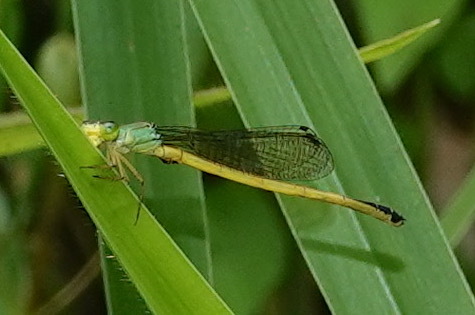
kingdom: Animalia
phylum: Arthropoda
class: Insecta
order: Odonata
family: Coenagrionidae
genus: Ceriagrion
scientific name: Ceriagrion fallax
